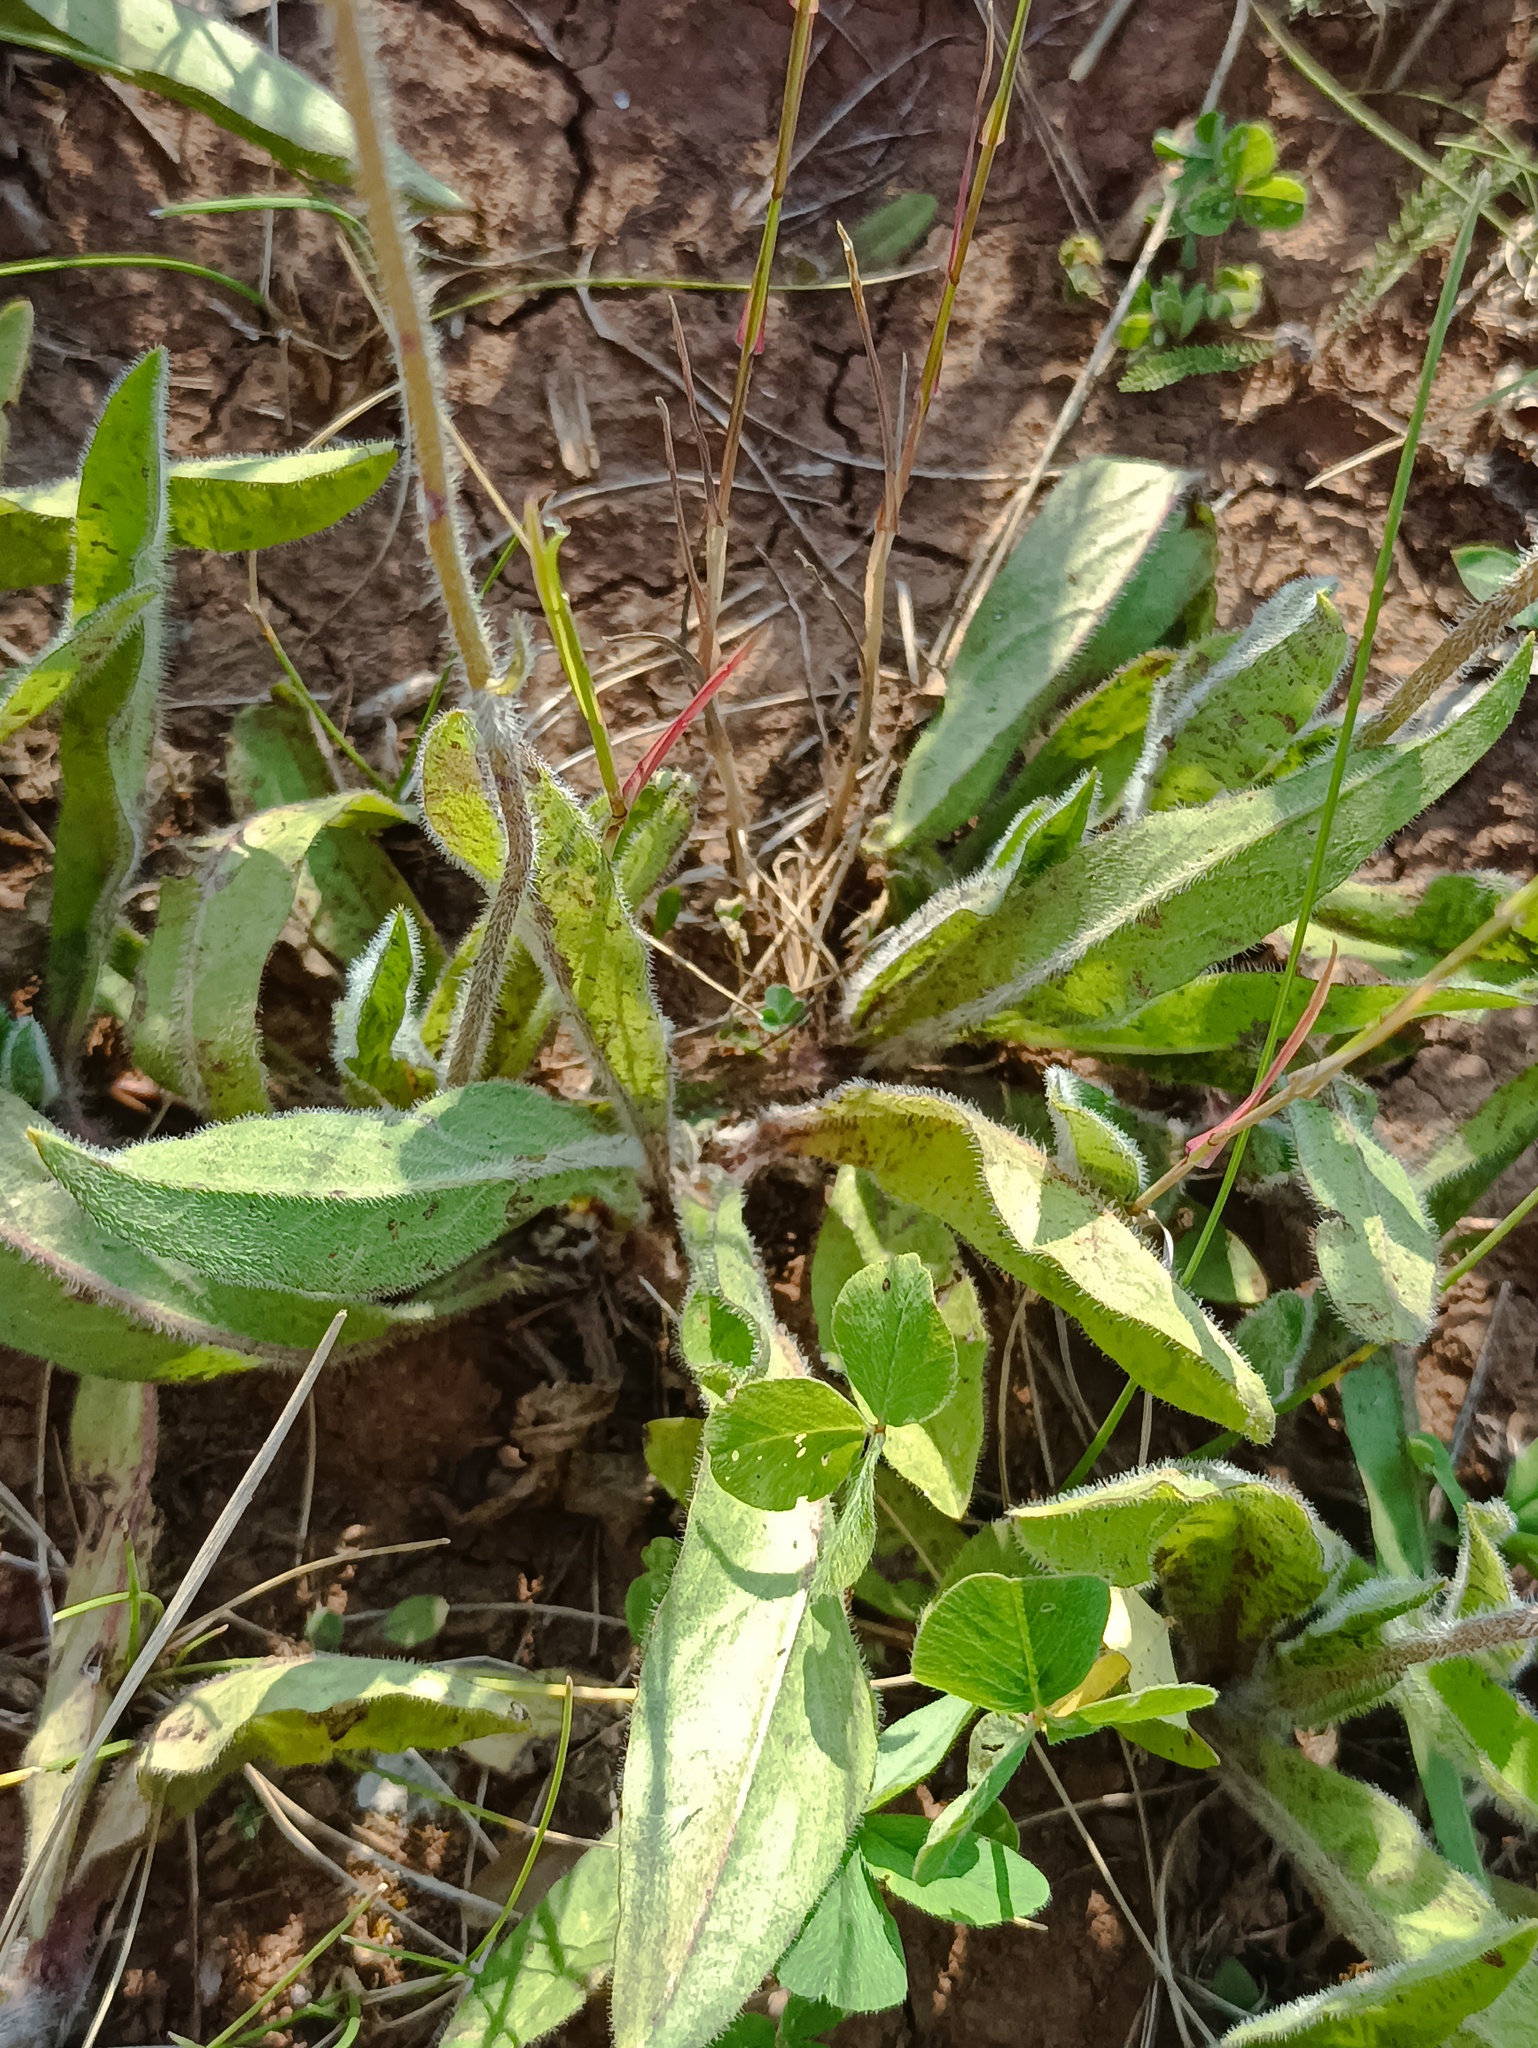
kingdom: Plantae
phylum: Tracheophyta
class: Magnoliopsida
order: Asterales
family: Asteraceae
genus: Pilosella
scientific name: Pilosella
